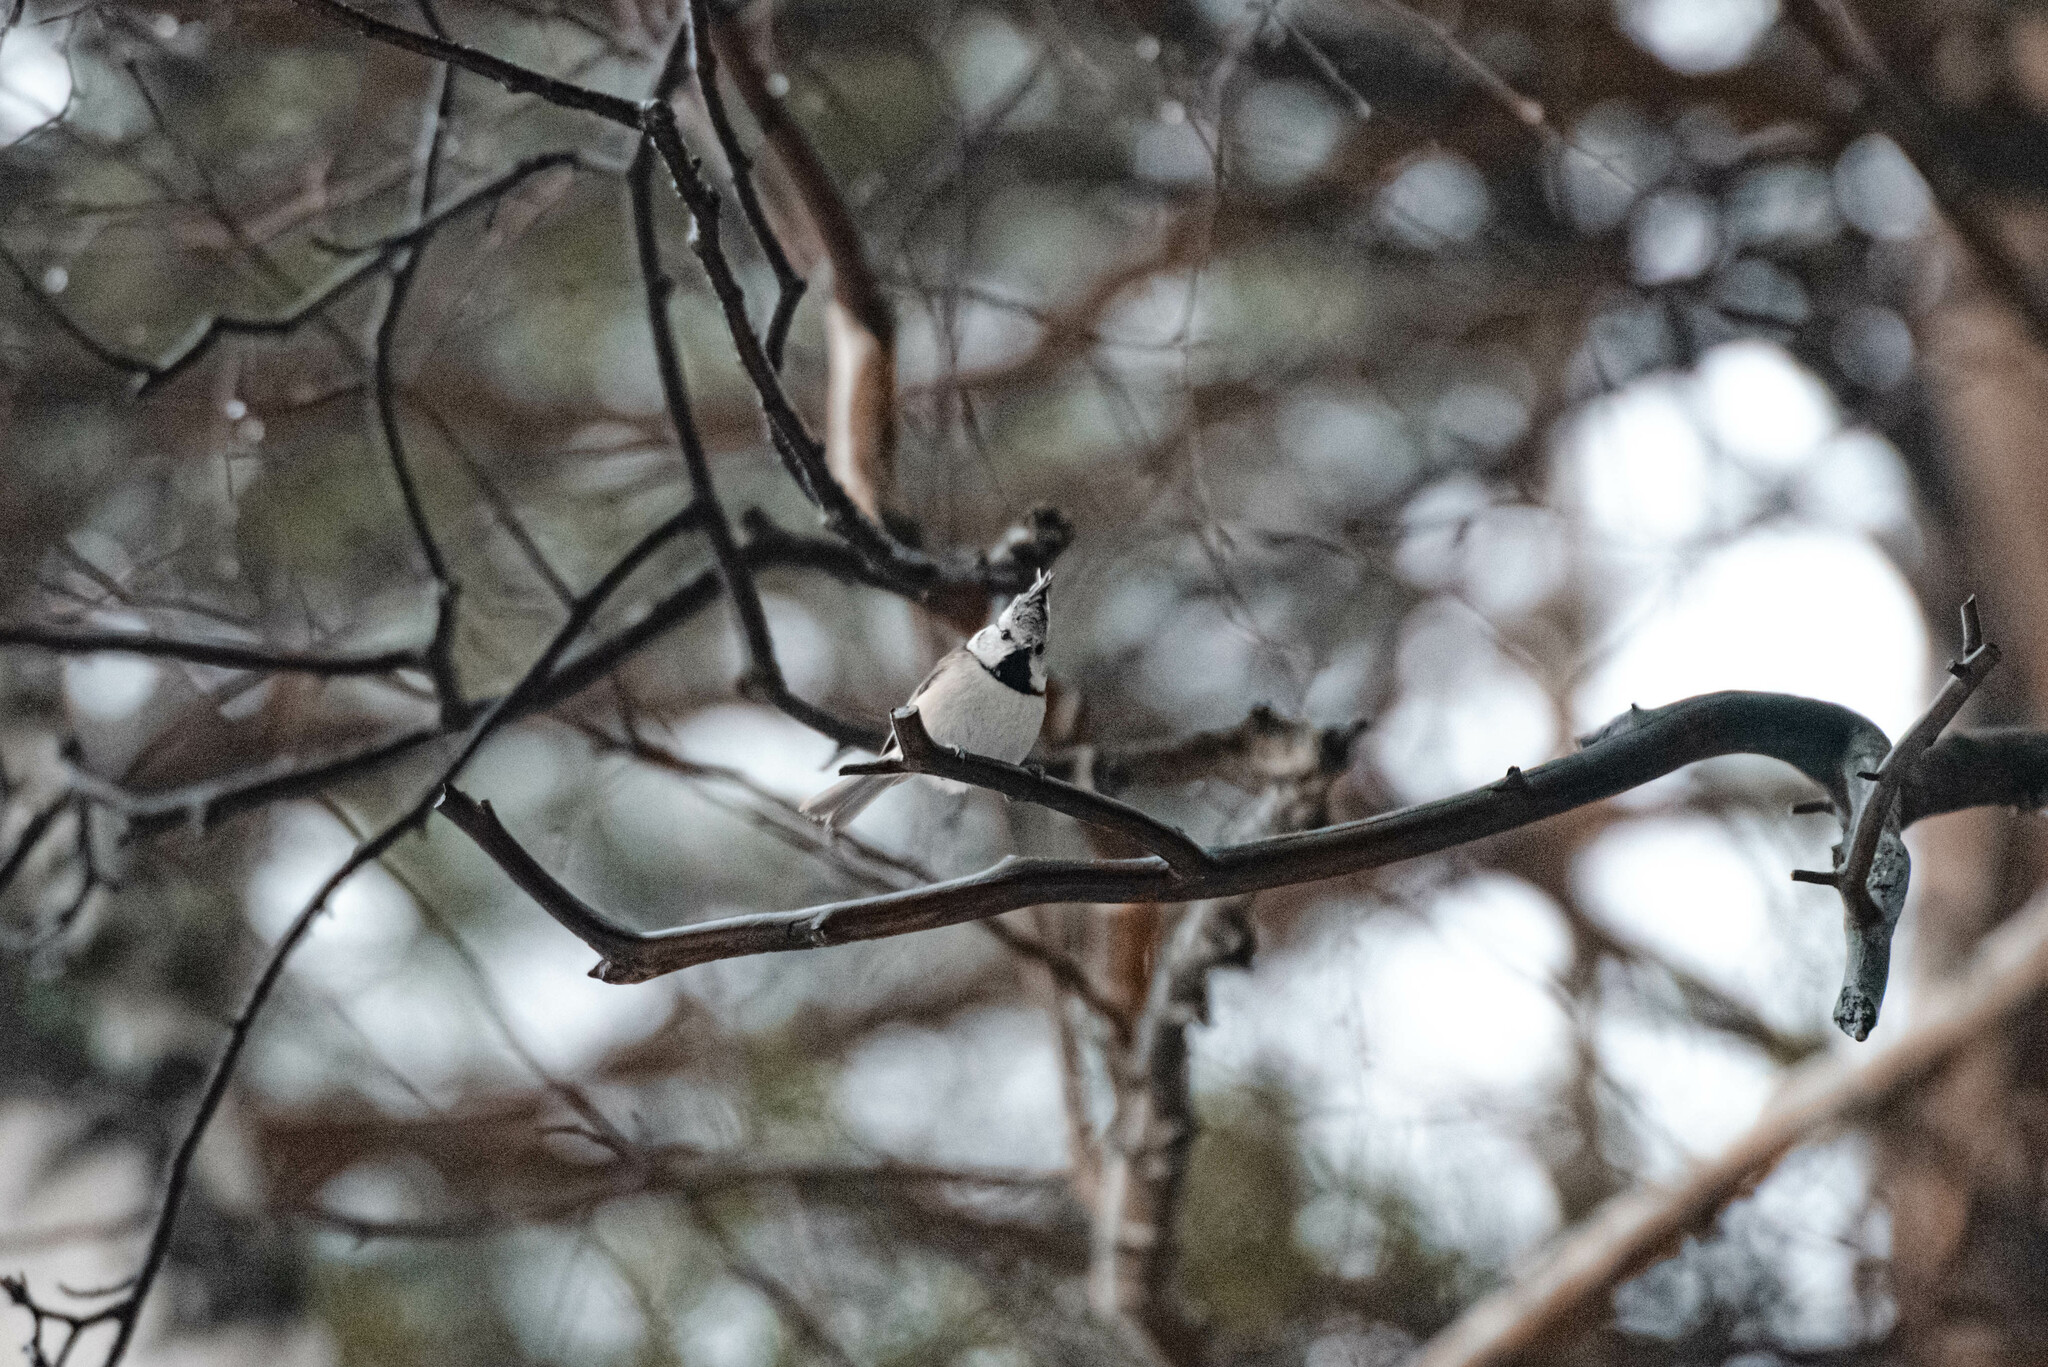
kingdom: Animalia
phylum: Chordata
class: Aves
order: Passeriformes
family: Paridae
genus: Lophophanes
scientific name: Lophophanes cristatus
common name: European crested tit
